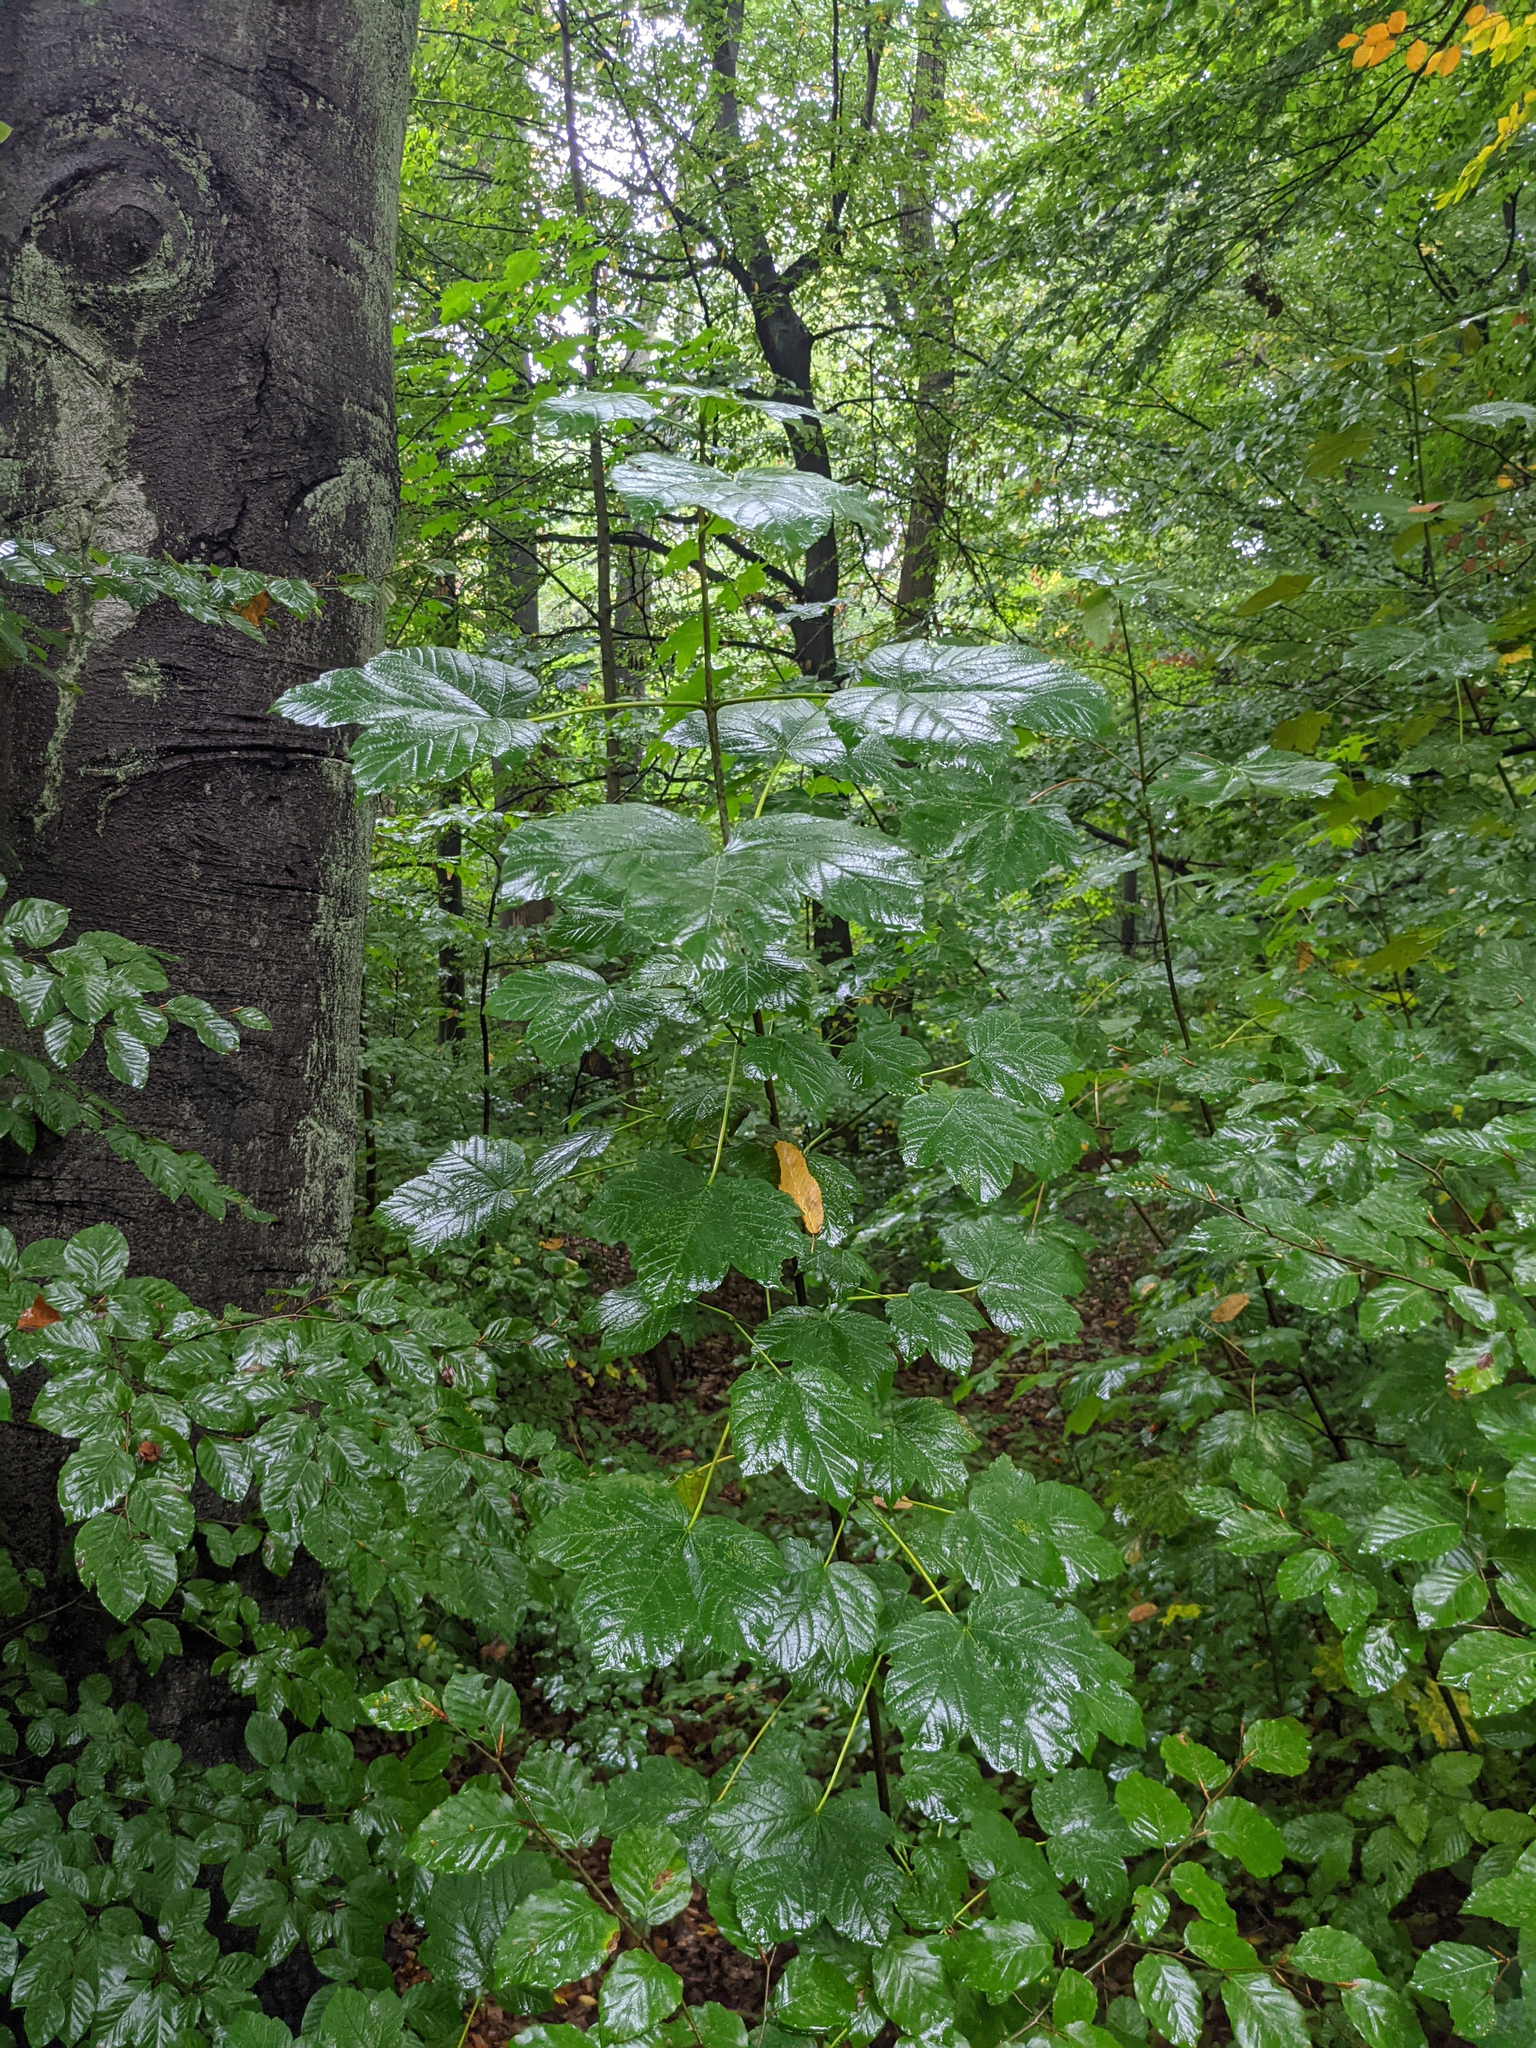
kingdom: Plantae
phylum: Tracheophyta
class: Magnoliopsida
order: Sapindales
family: Sapindaceae
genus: Acer
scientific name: Acer pseudoplatanus
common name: Sycamore
